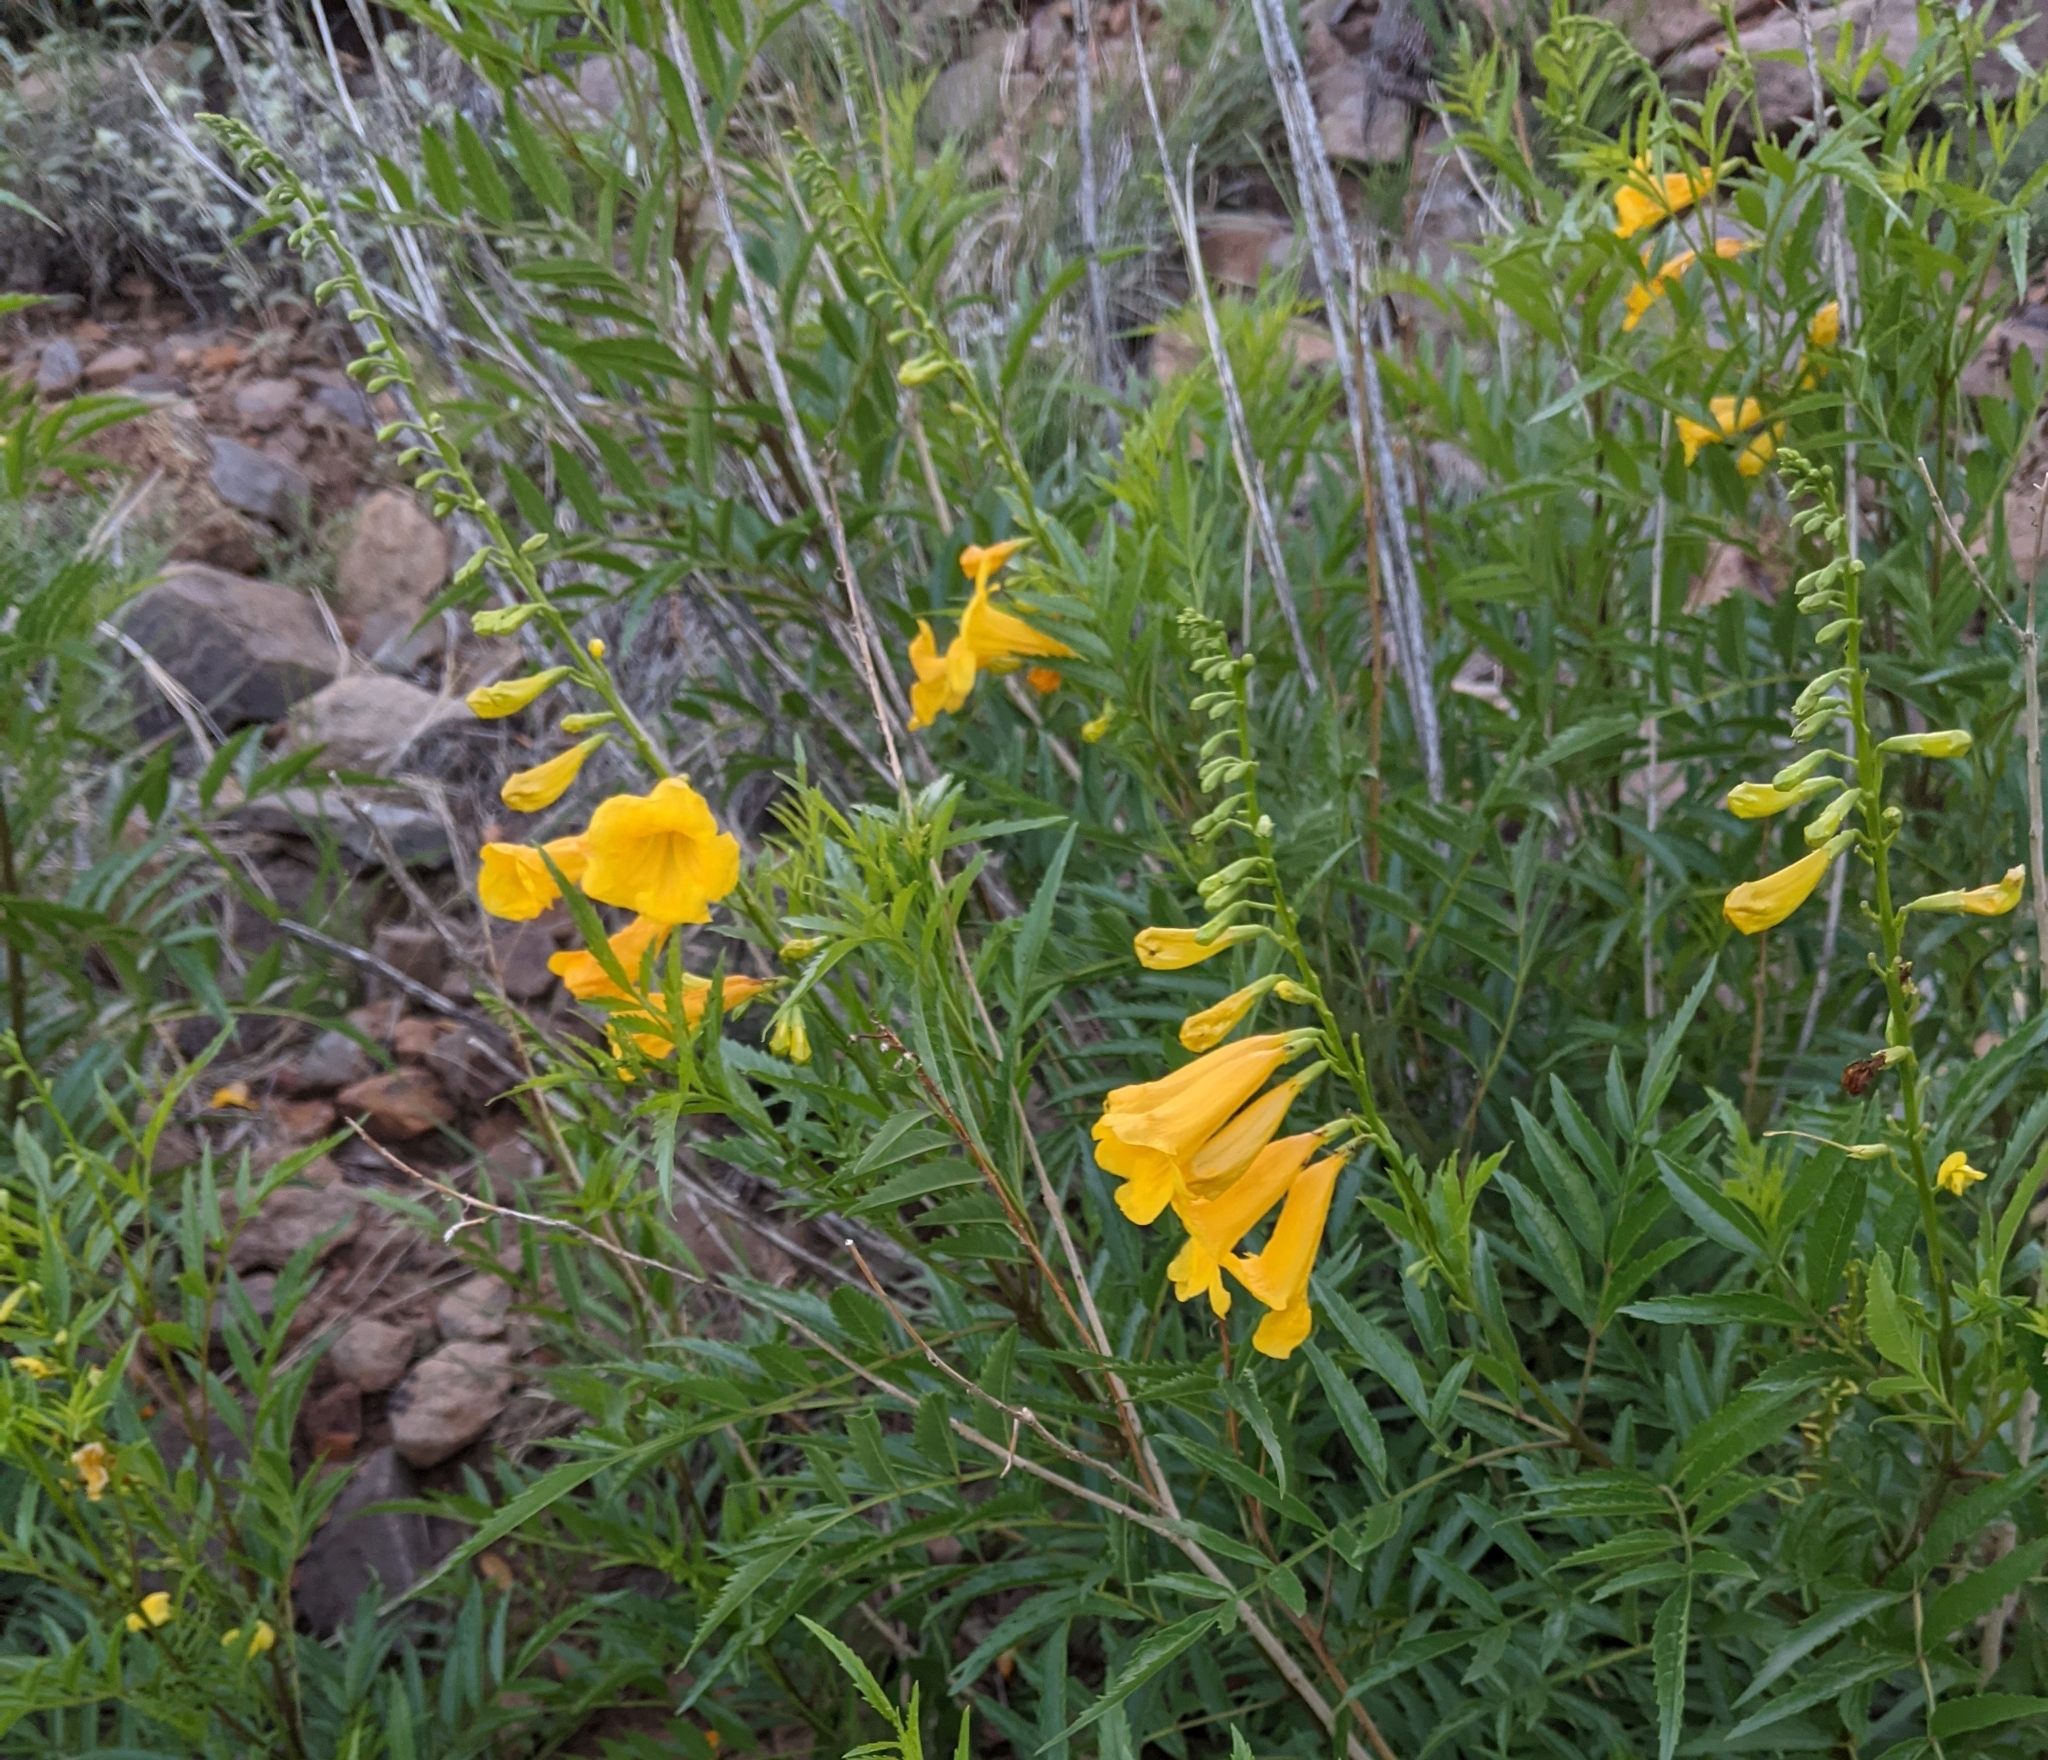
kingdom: Plantae
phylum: Tracheophyta
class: Magnoliopsida
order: Lamiales
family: Bignoniaceae
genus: Tecoma
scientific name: Tecoma stans
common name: Yellow trumpetbush
